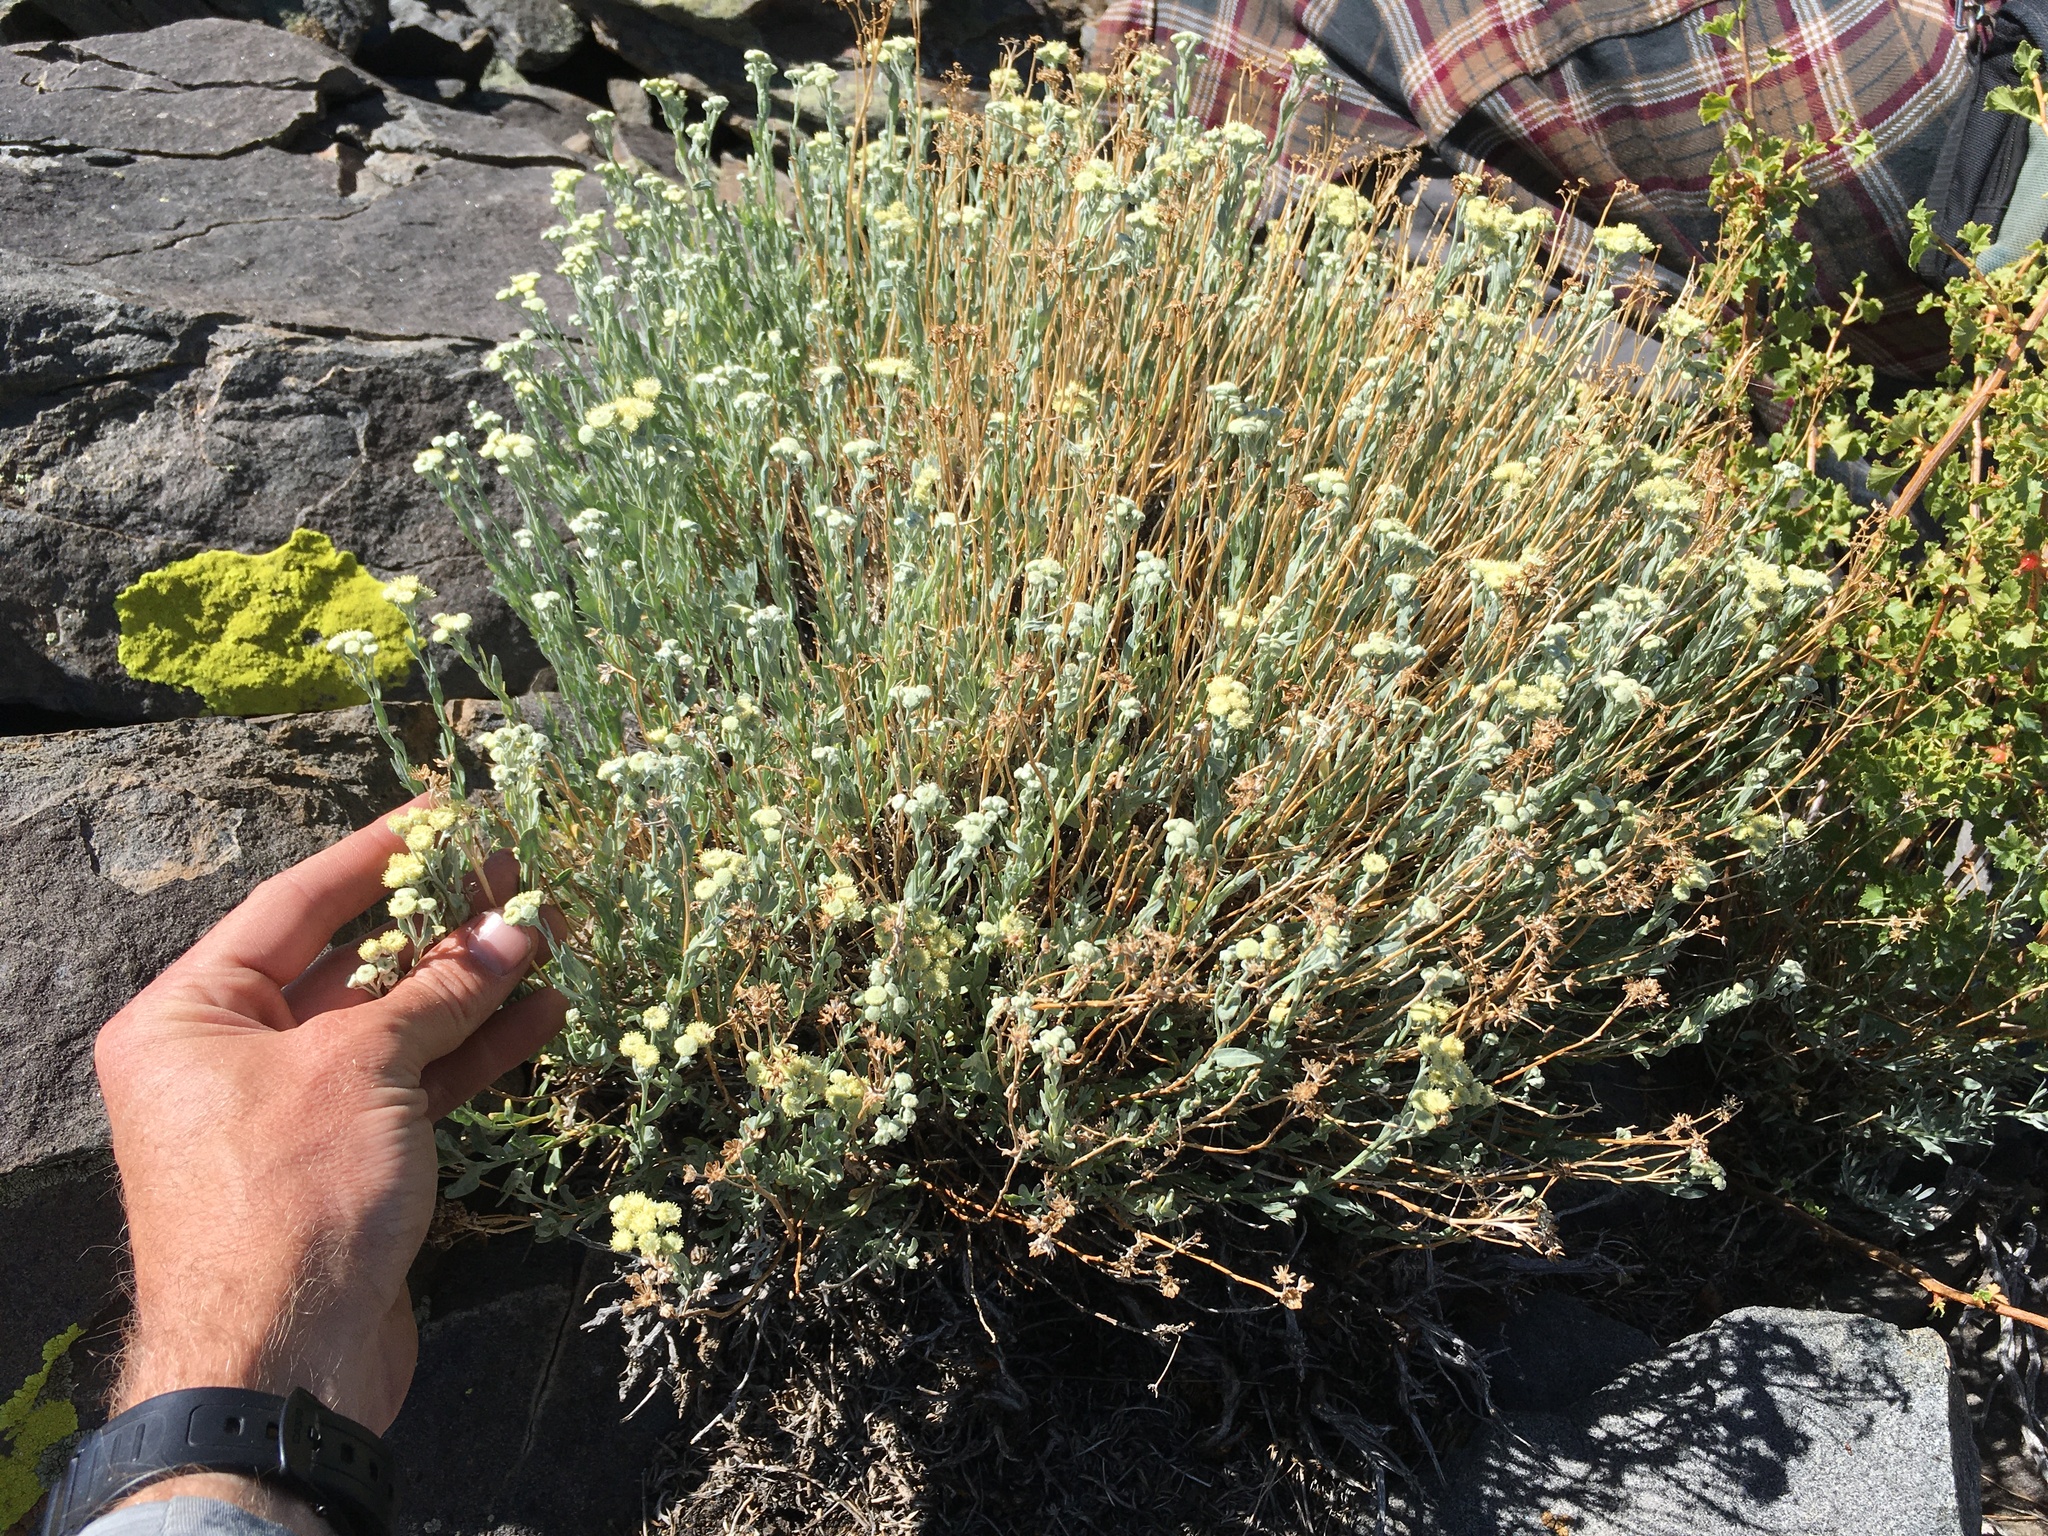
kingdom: Plantae
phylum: Tracheophyta
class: Magnoliopsida
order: Asterales
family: Asteraceae
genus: Artemisia
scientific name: Artemisia albicans
